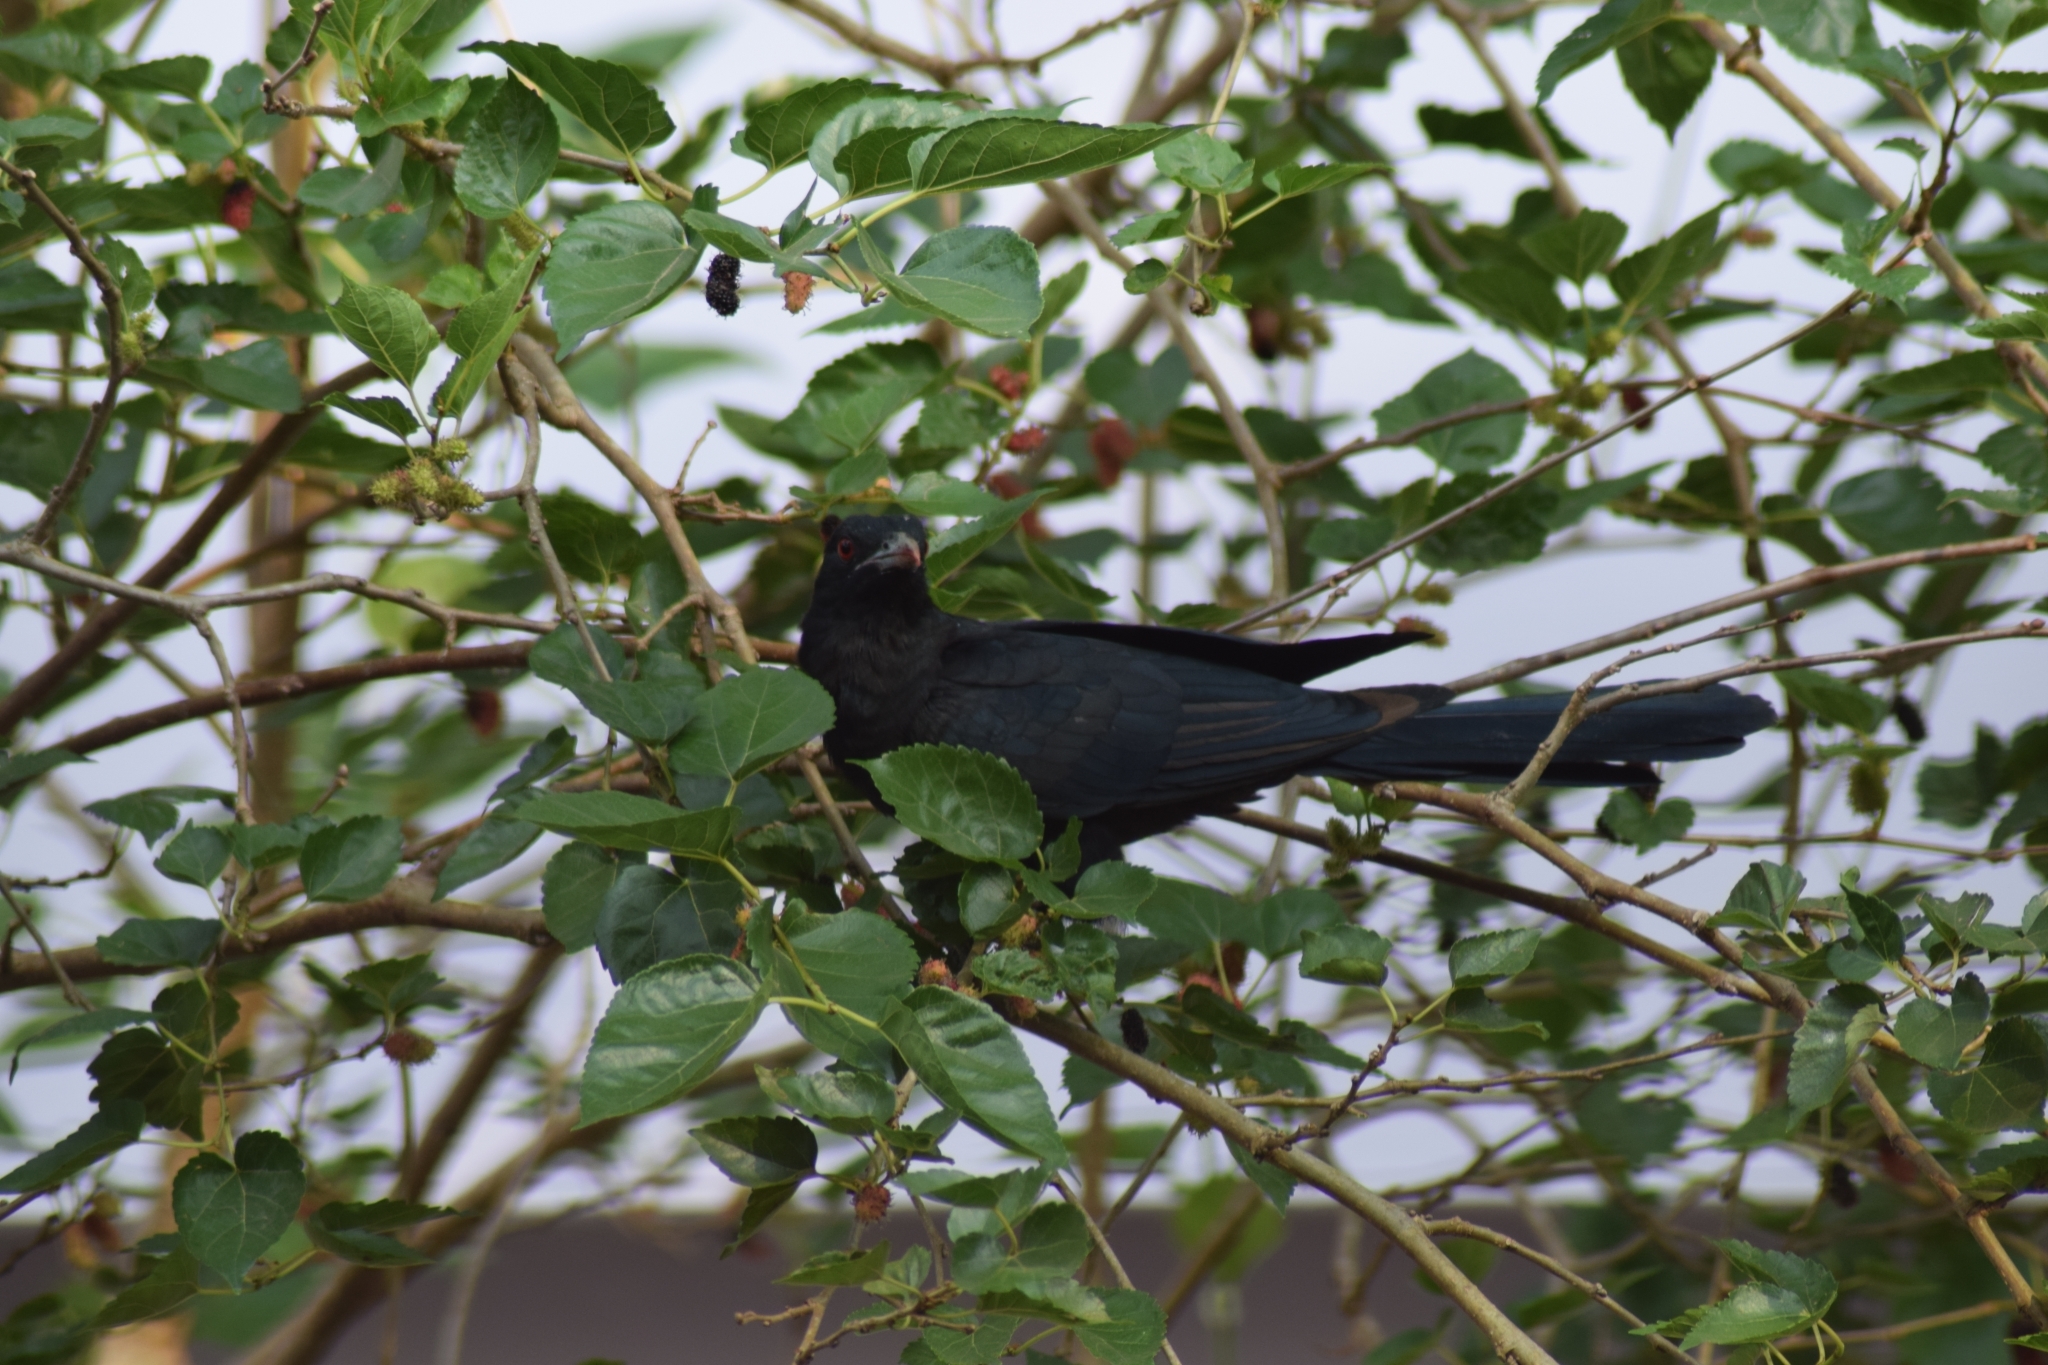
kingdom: Animalia
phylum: Chordata
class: Aves
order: Cuculiformes
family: Cuculidae
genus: Eudynamys
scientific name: Eudynamys scolopaceus
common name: Asian koel
